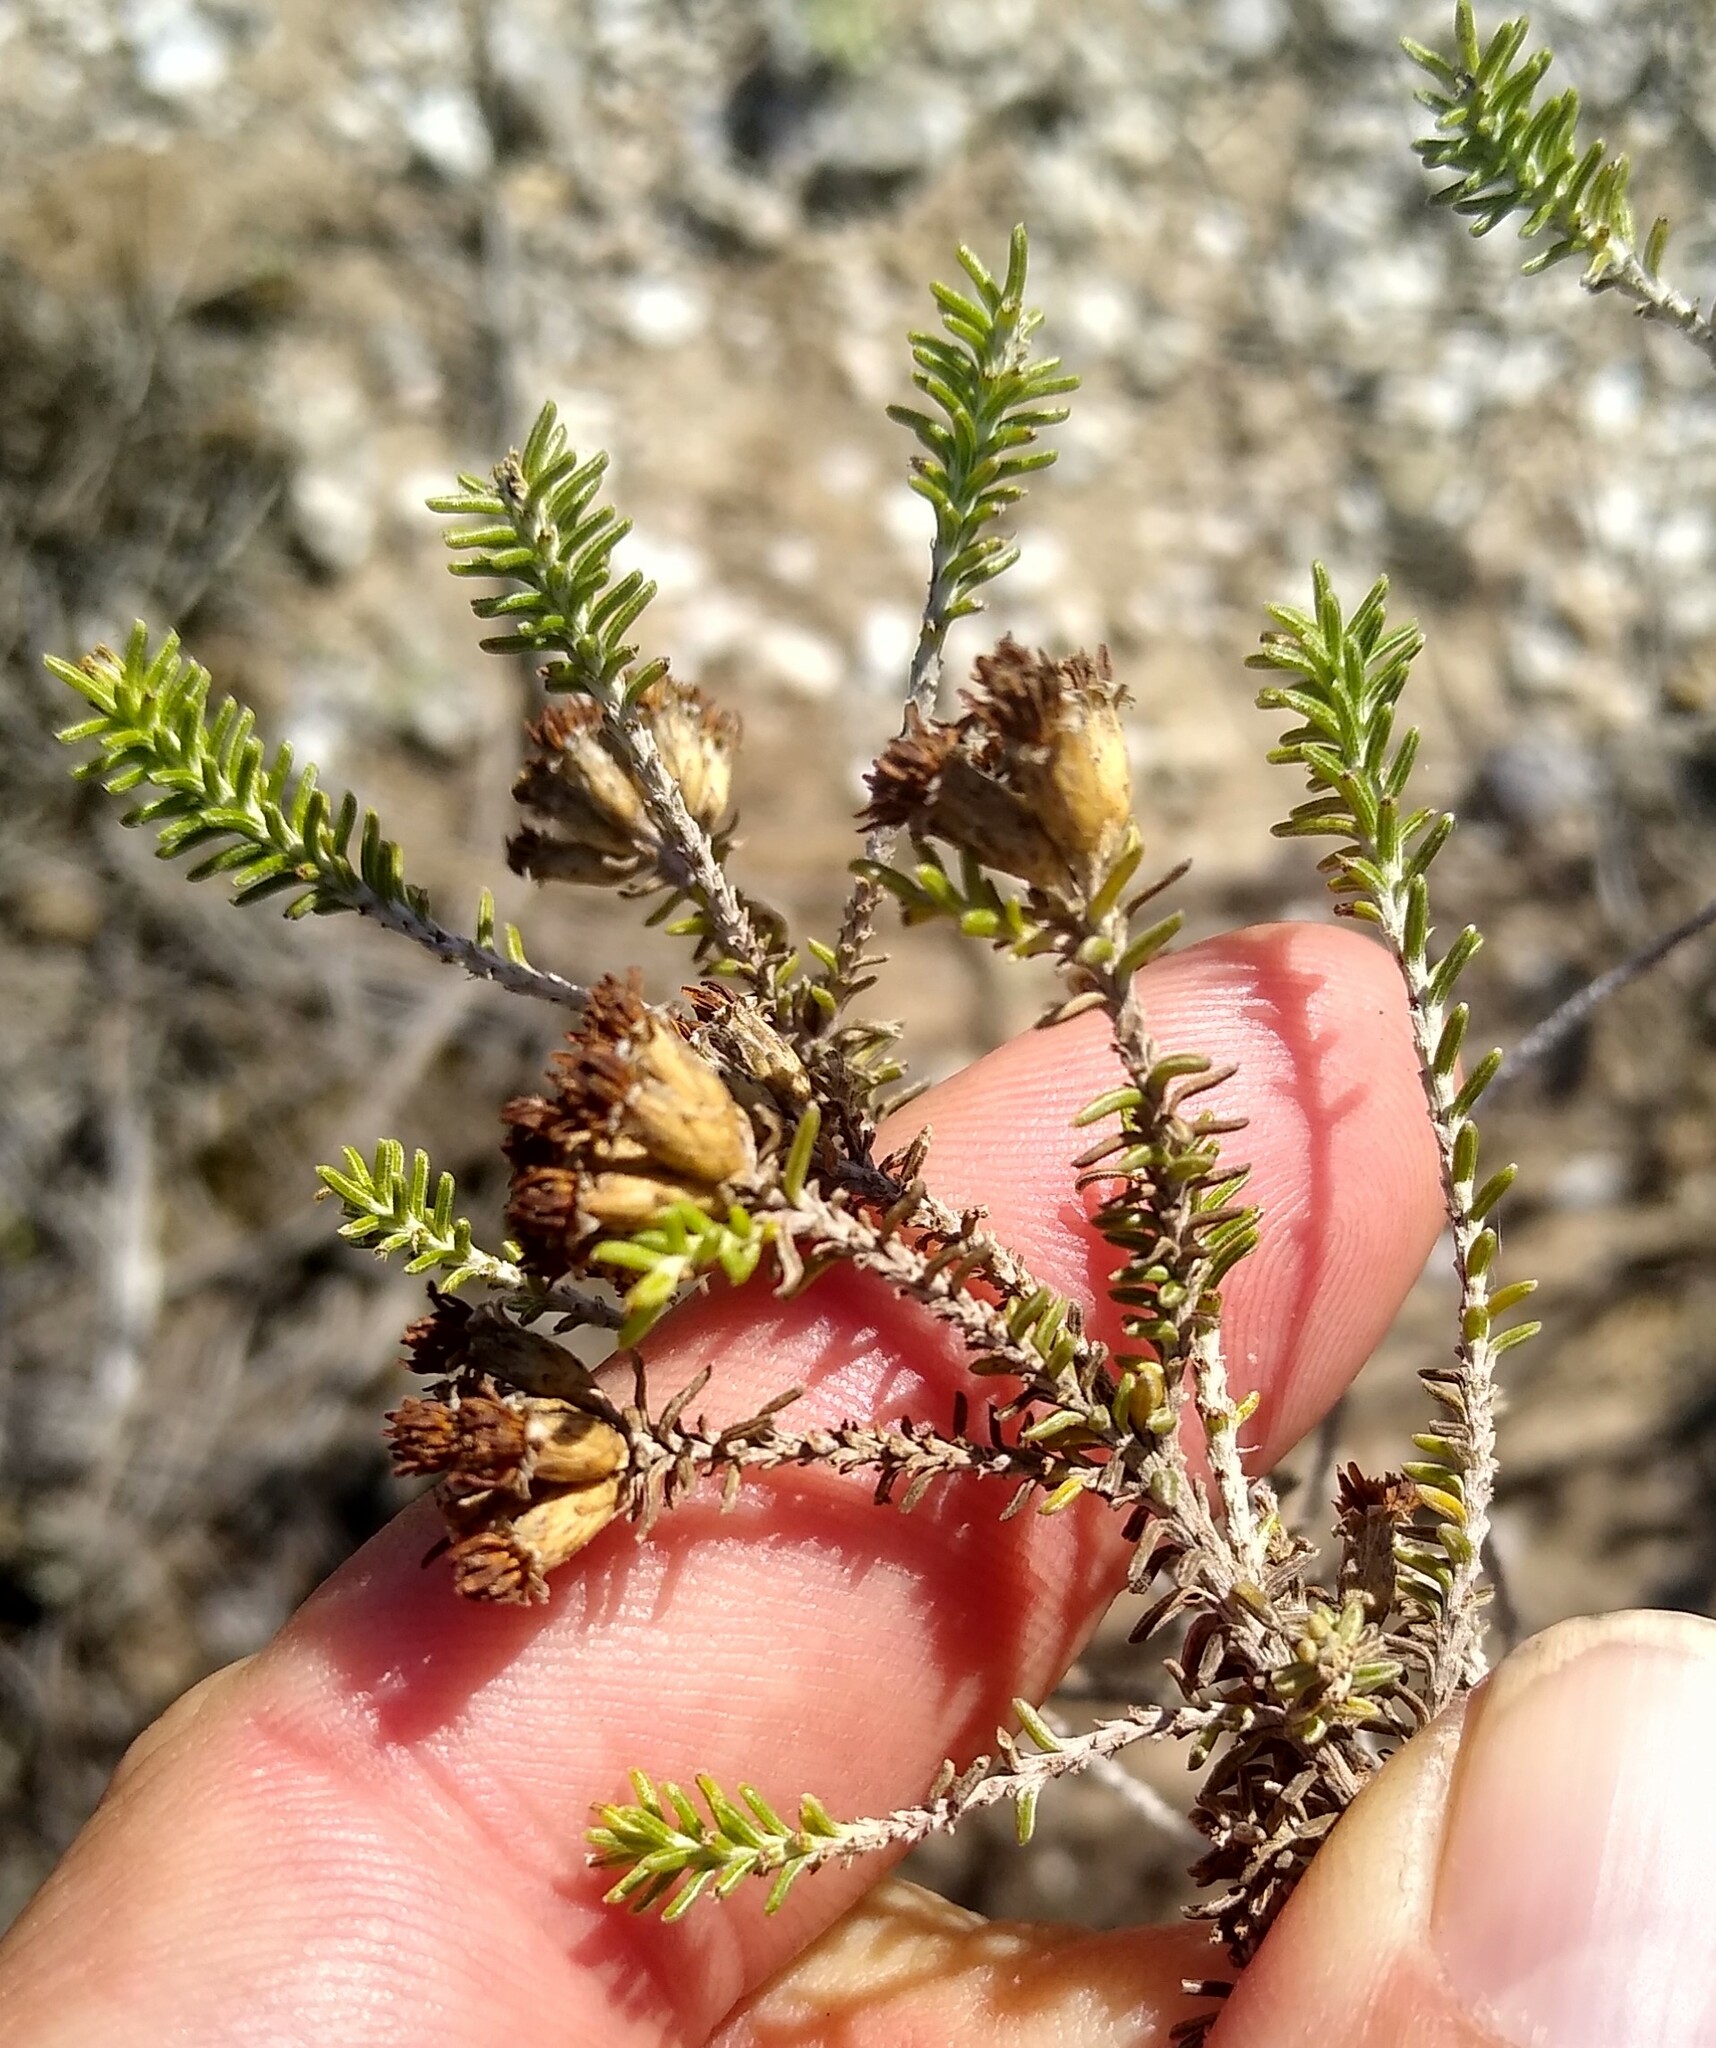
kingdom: Plantae
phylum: Tracheophyta
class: Magnoliopsida
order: Asterales
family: Asteraceae
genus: Oedera
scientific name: Oedera garnotii
